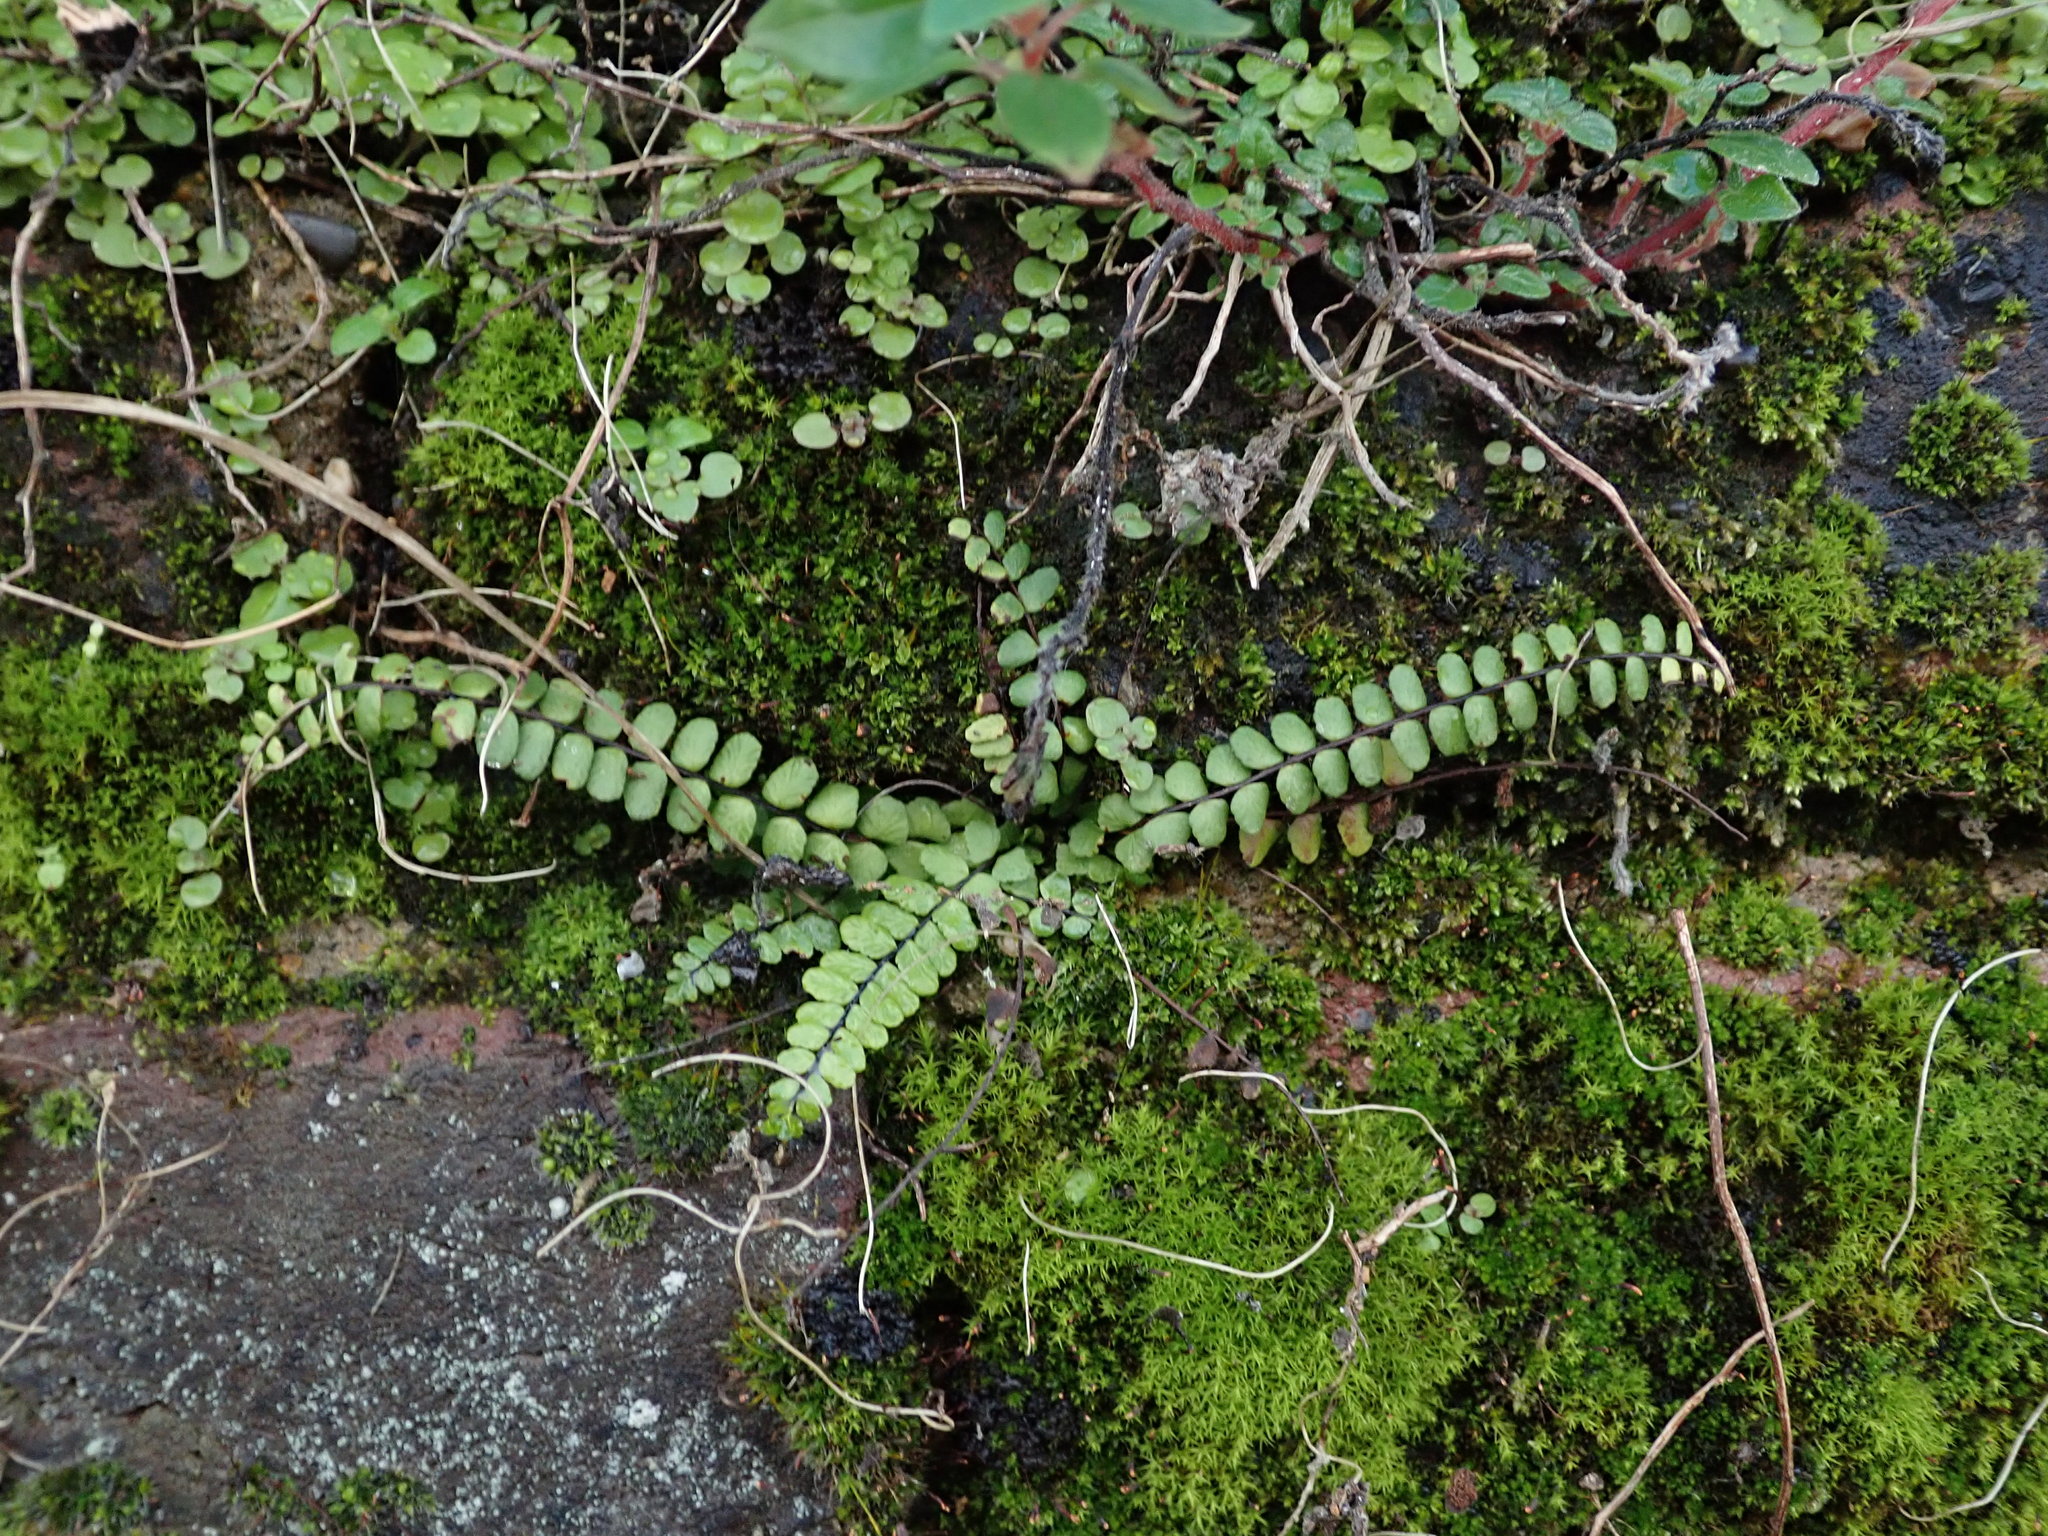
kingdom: Plantae
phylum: Tracheophyta
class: Polypodiopsida
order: Polypodiales
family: Aspleniaceae
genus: Asplenium
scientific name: Asplenium trichomanes
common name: Maidenhair spleenwort
